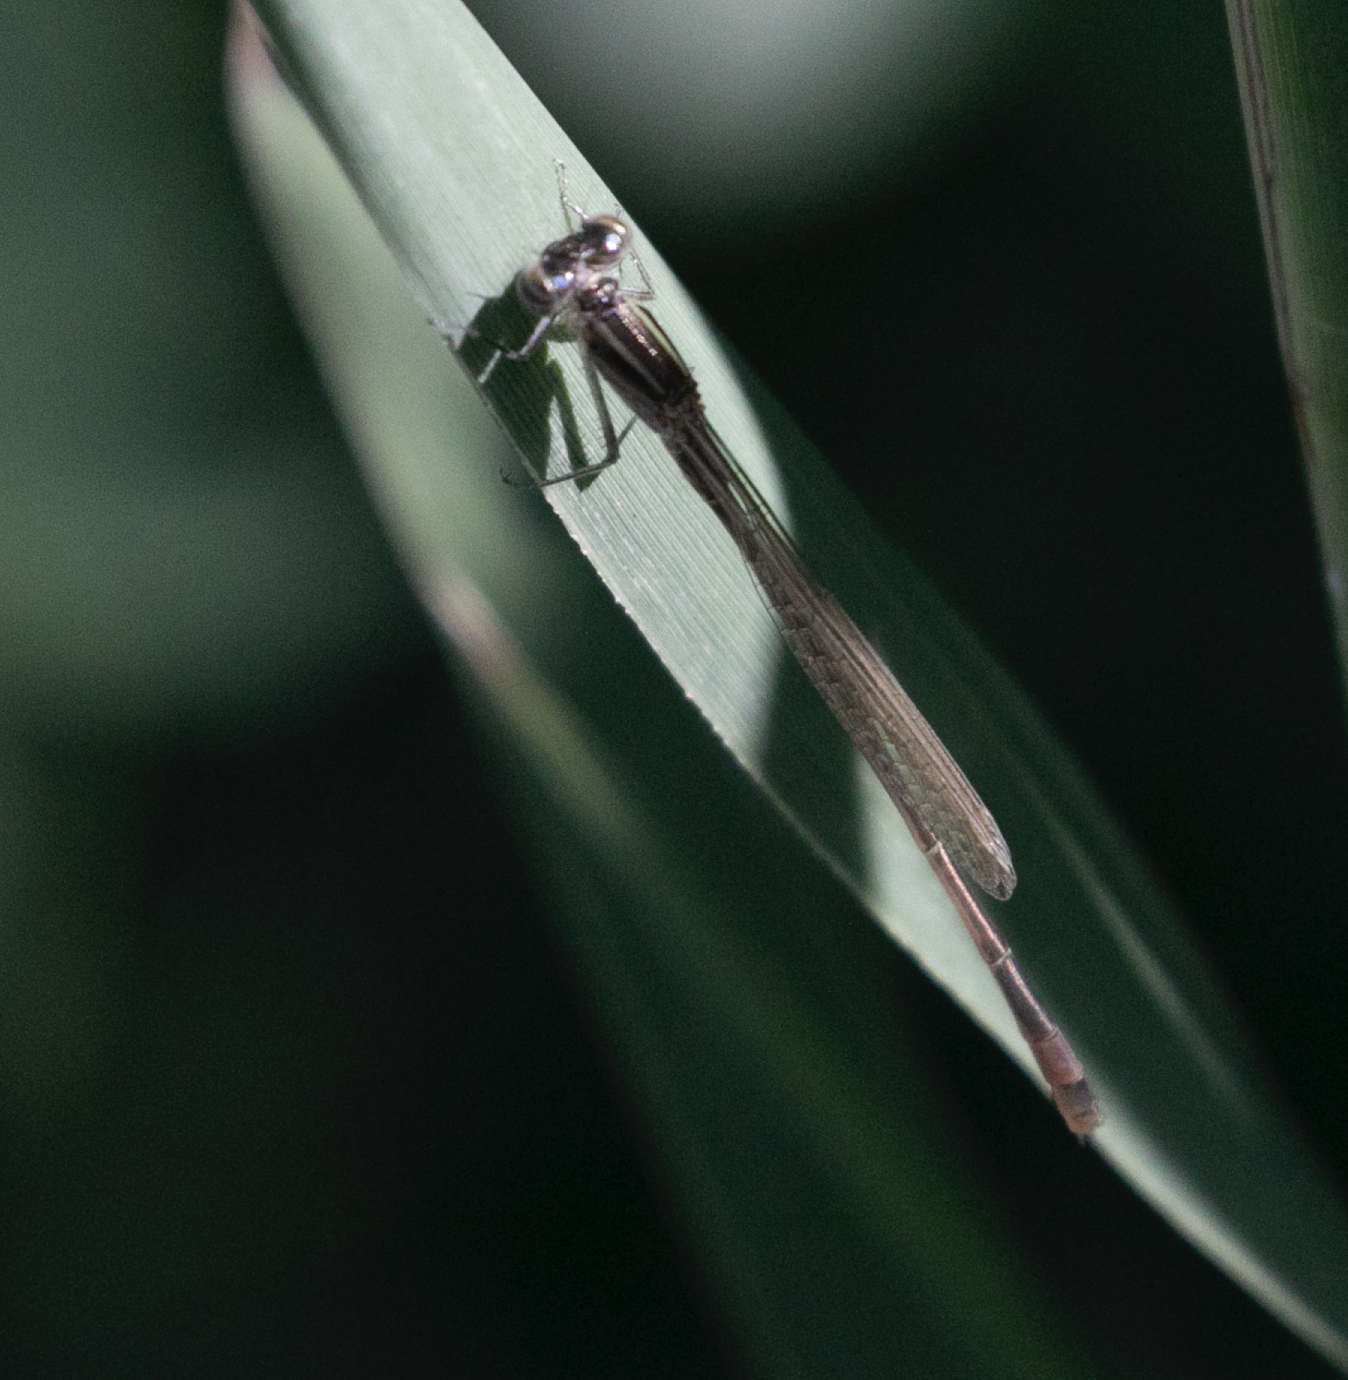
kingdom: Animalia
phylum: Arthropoda
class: Insecta
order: Odonata
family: Coenagrionidae
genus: Ischnura
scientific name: Ischnura elegans
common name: Blue-tailed damselfly
